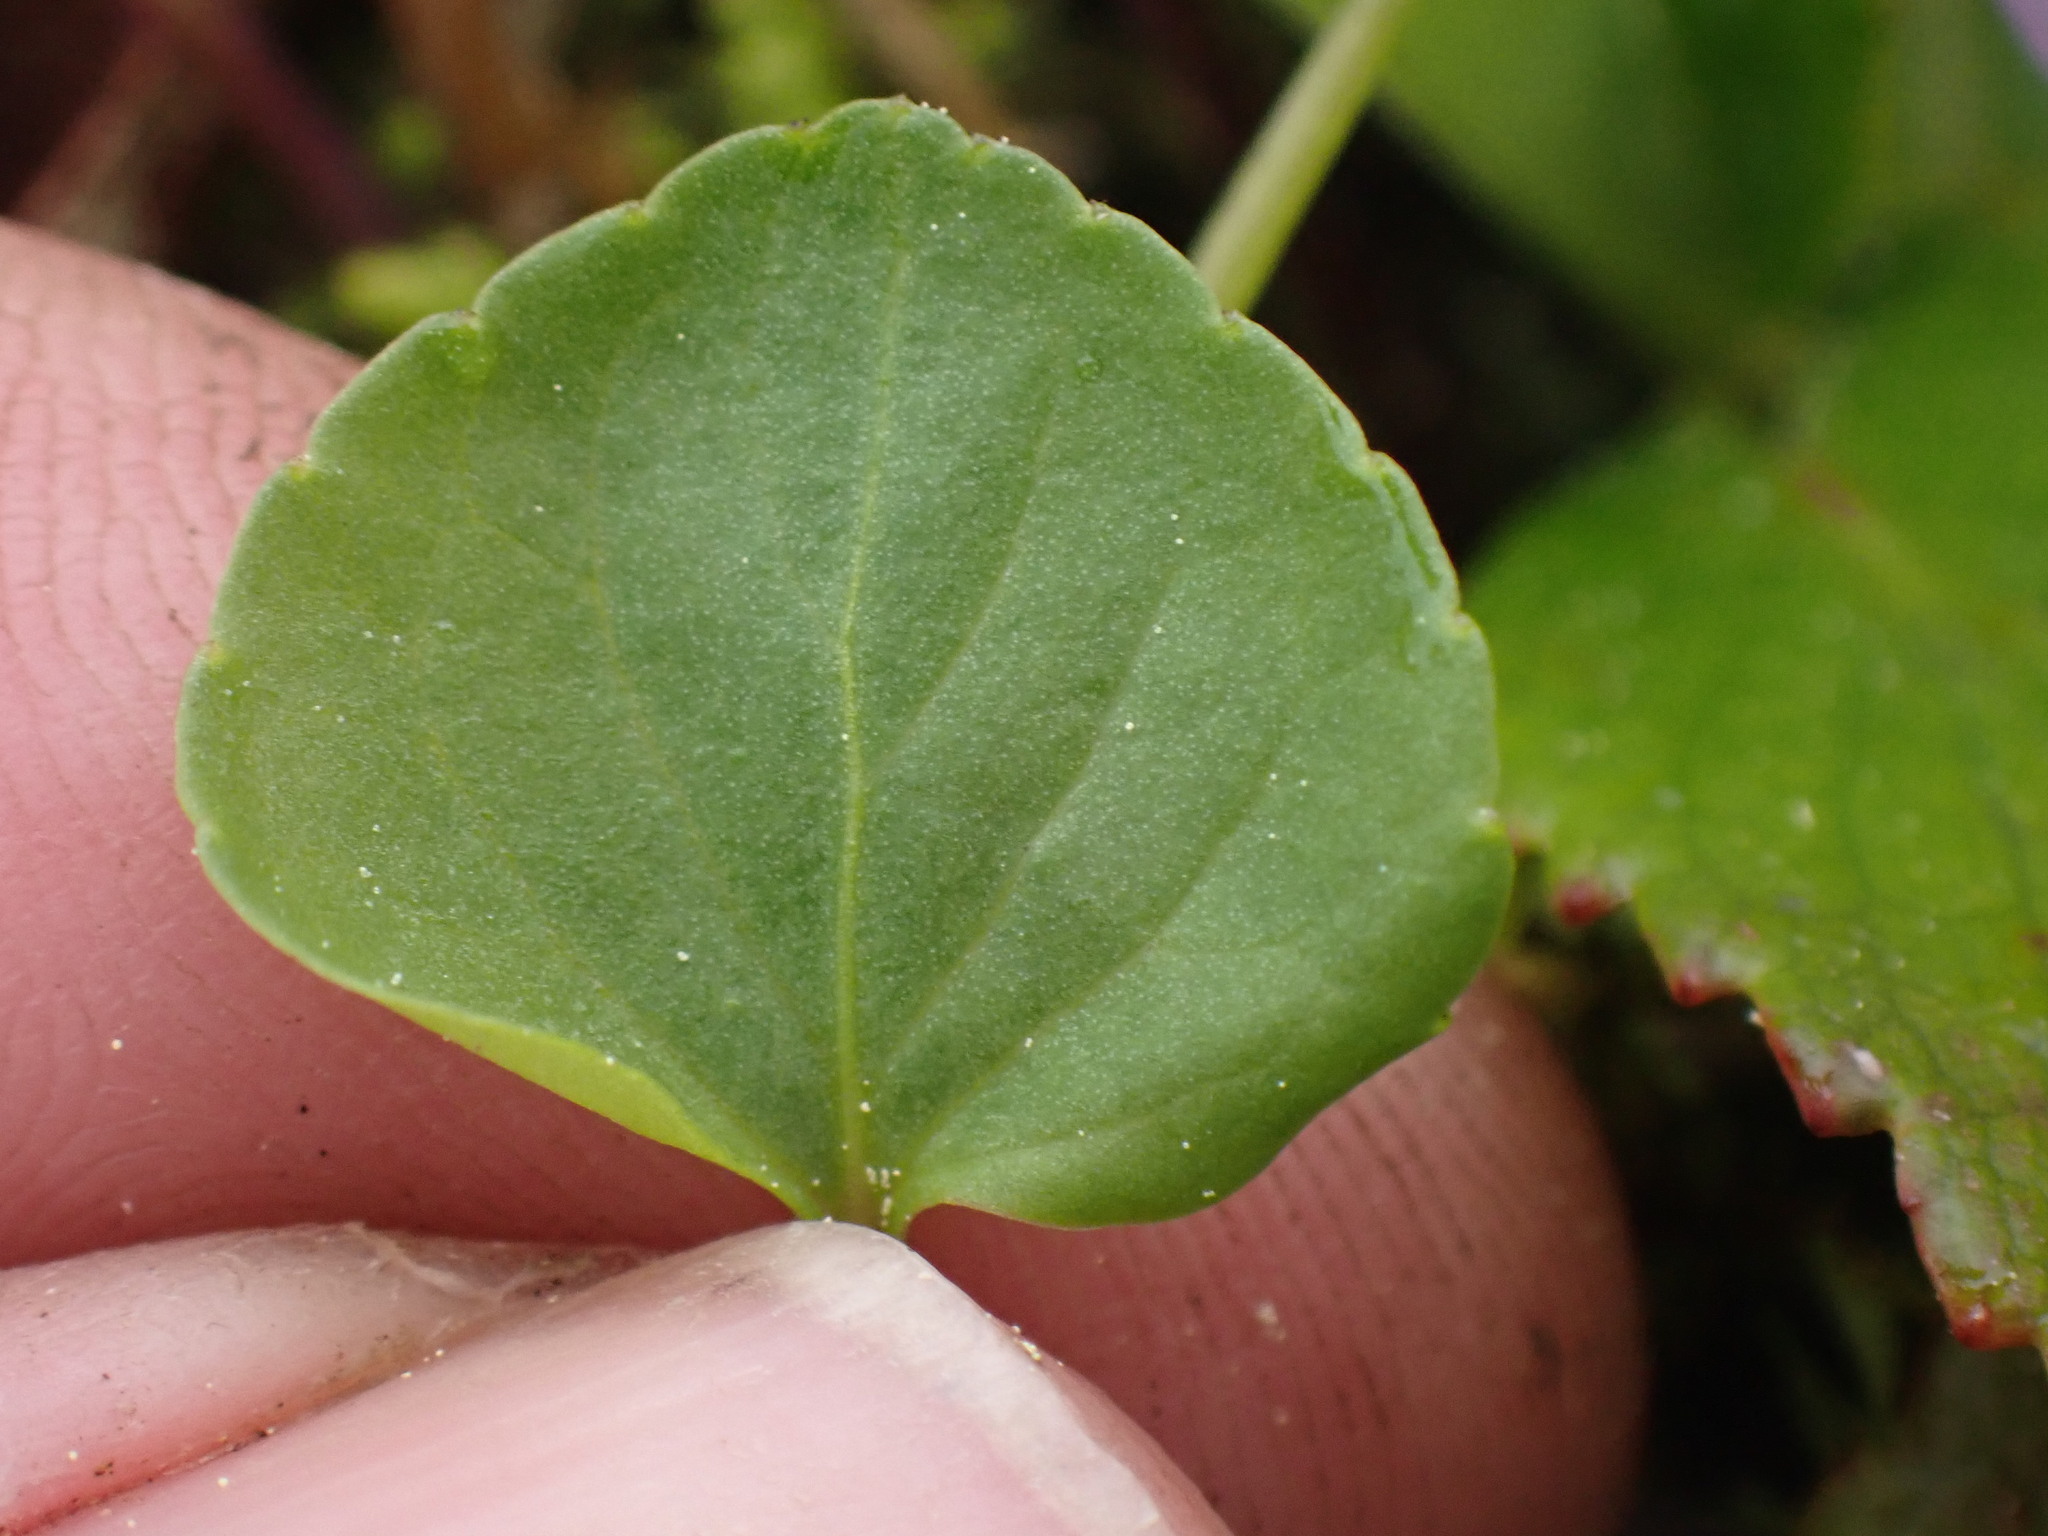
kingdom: Plantae
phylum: Tracheophyta
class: Magnoliopsida
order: Malpighiales
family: Violaceae
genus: Viola
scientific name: Viola palustris
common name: Marsh violet
